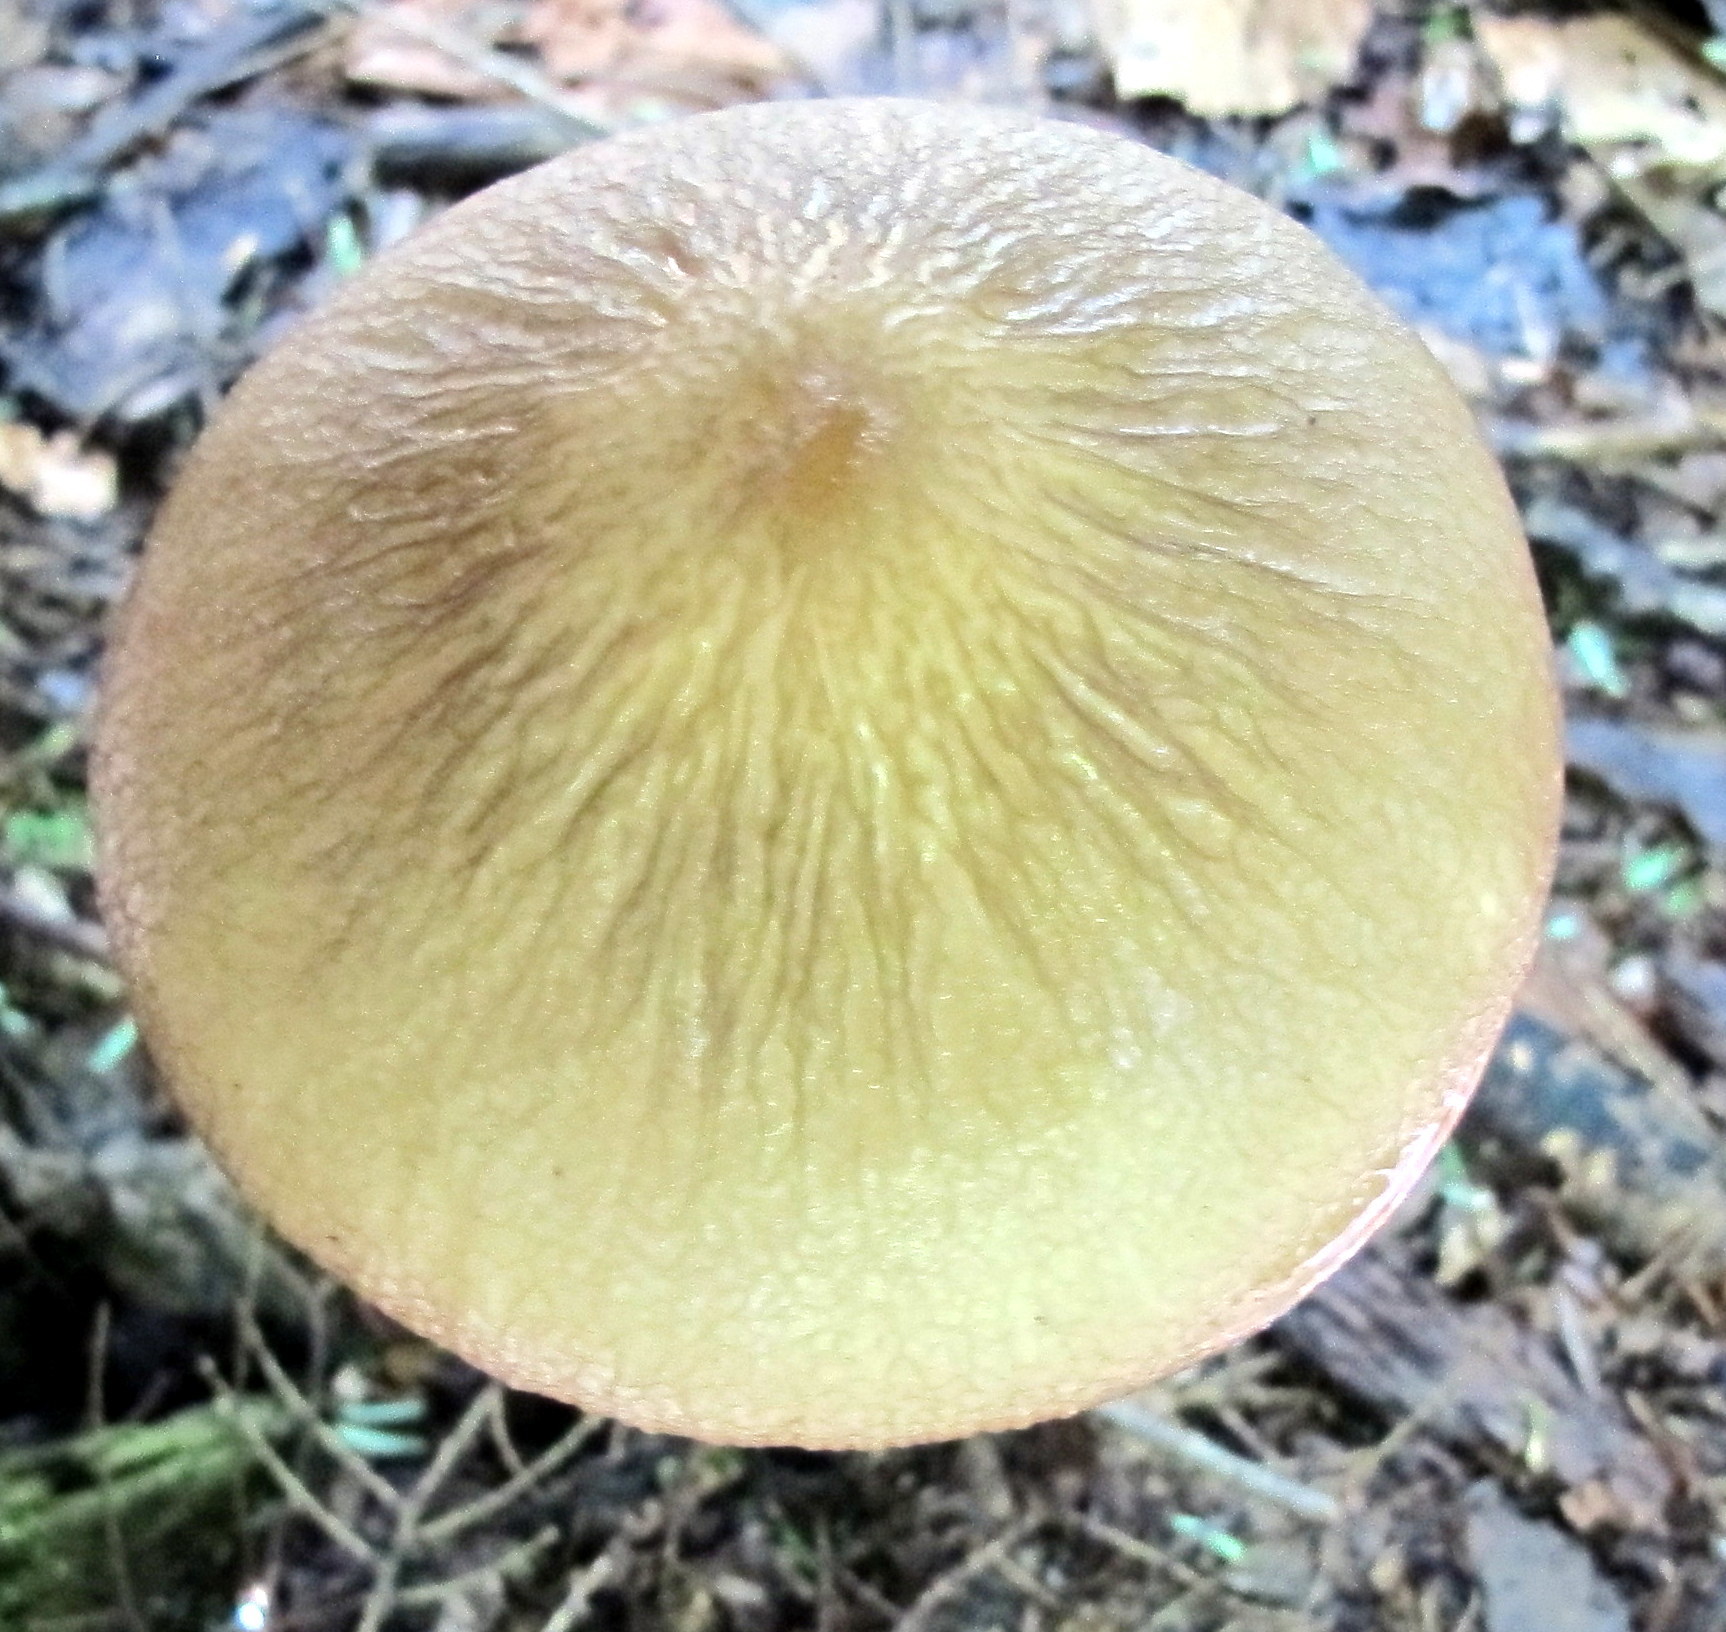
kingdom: Fungi
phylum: Basidiomycota
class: Agaricomycetes
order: Agaricales
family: Physalacriaceae
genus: Hymenopellis
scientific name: Hymenopellis furfuracea
